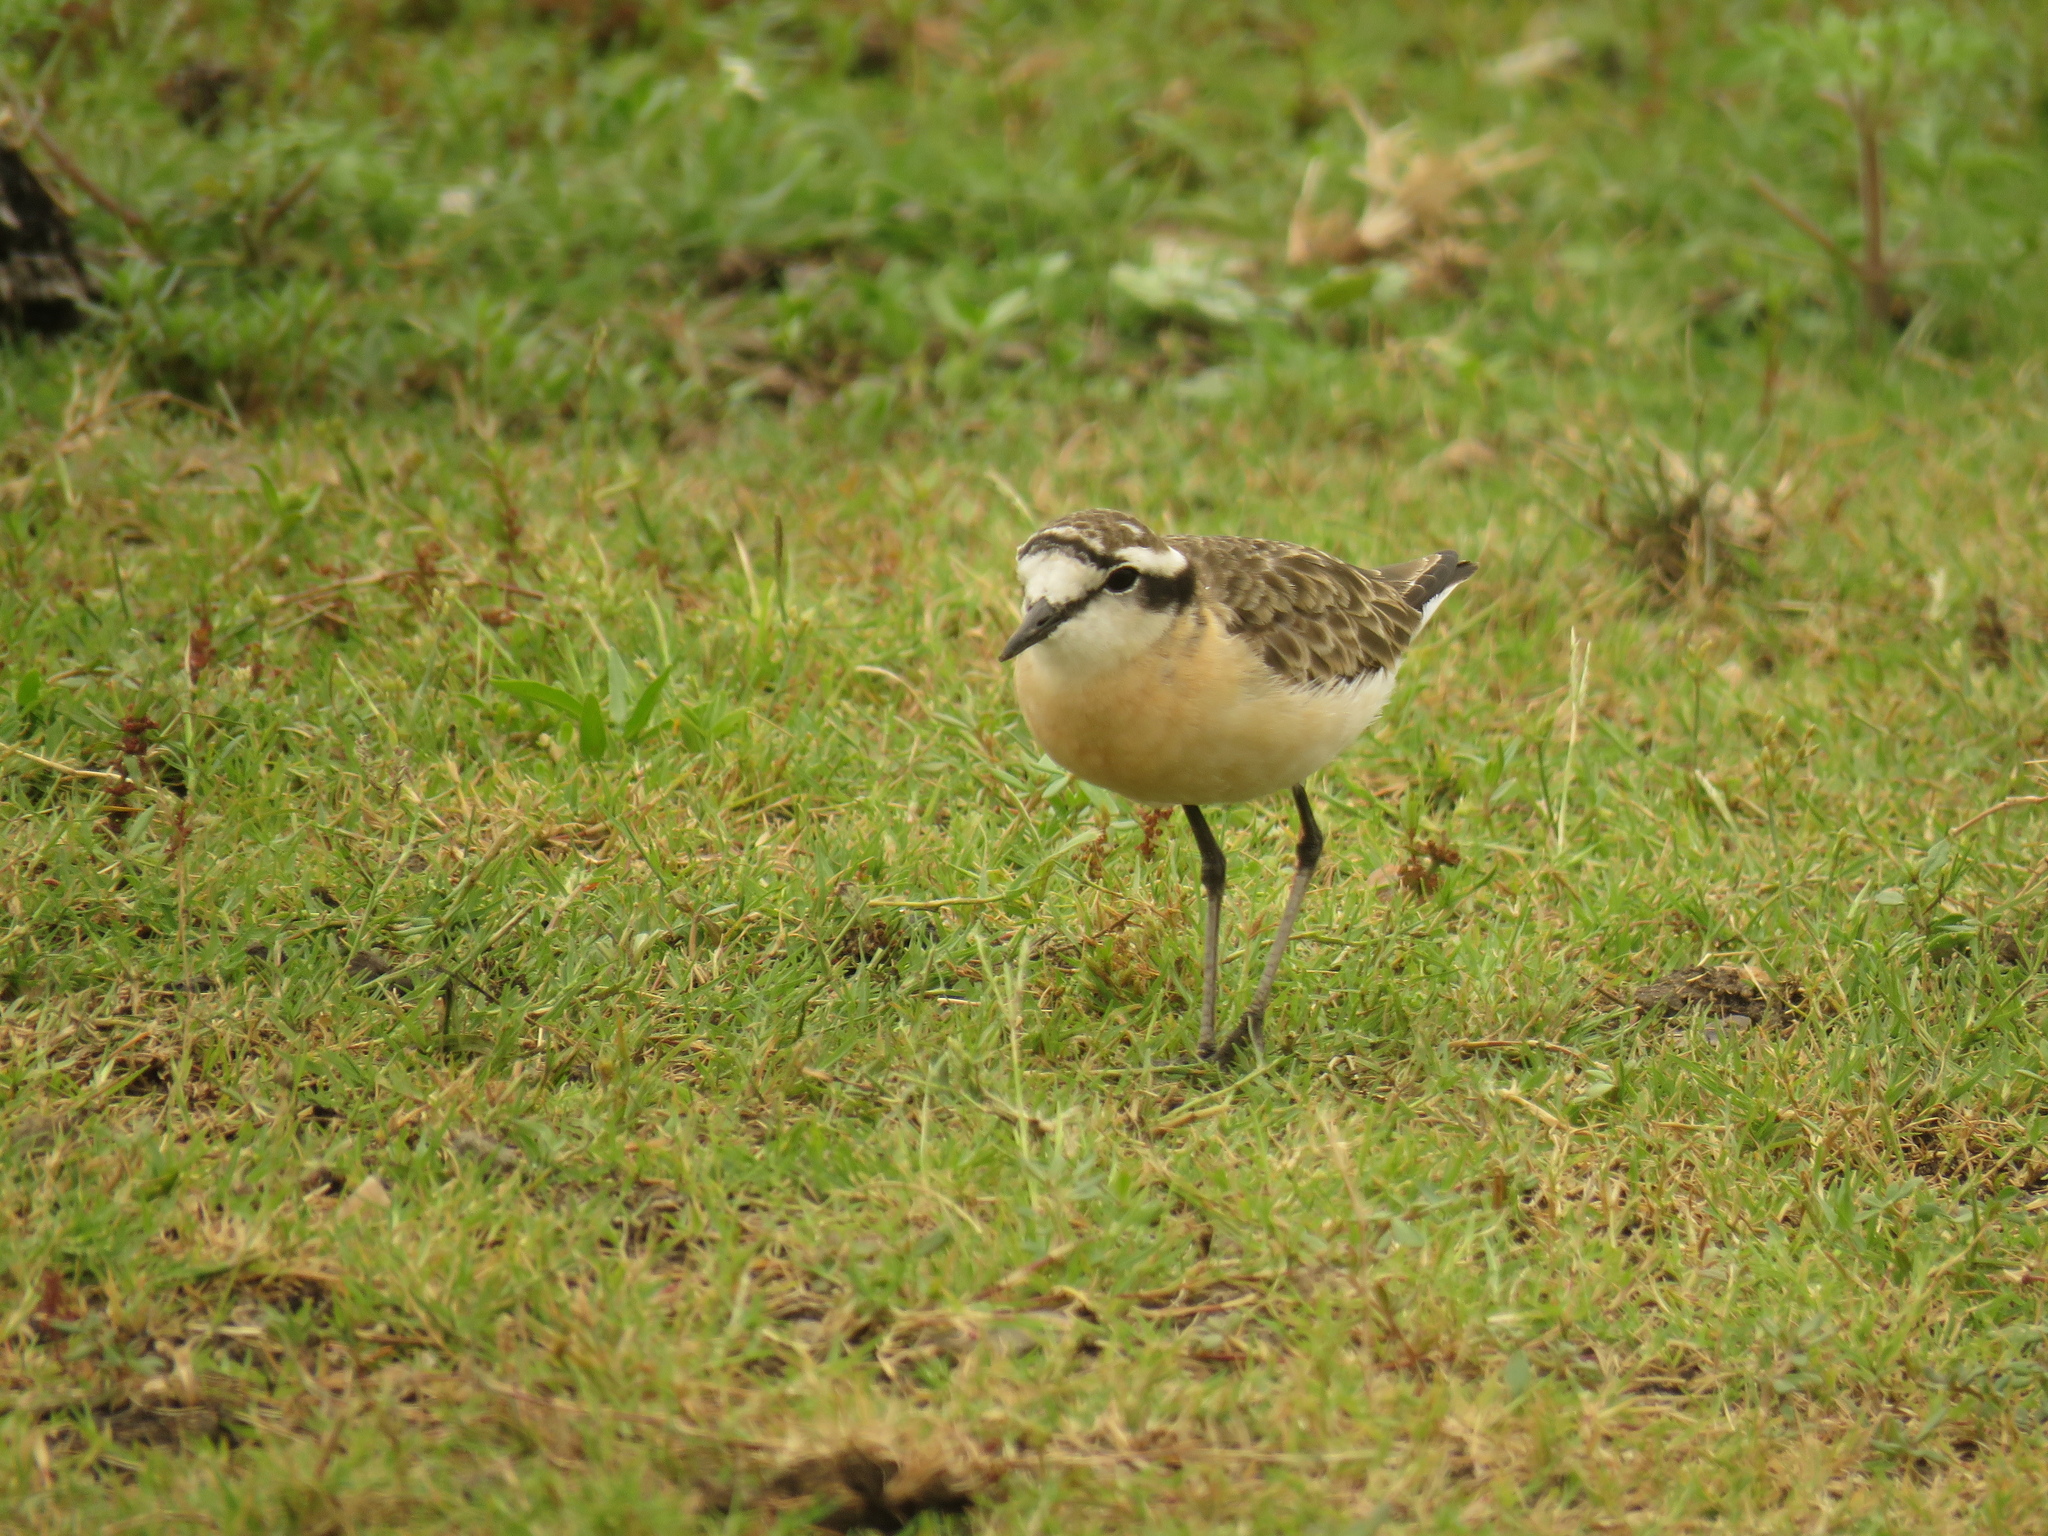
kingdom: Animalia
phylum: Chordata
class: Aves
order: Charadriiformes
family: Charadriidae
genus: Anarhynchus
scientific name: Anarhynchus
